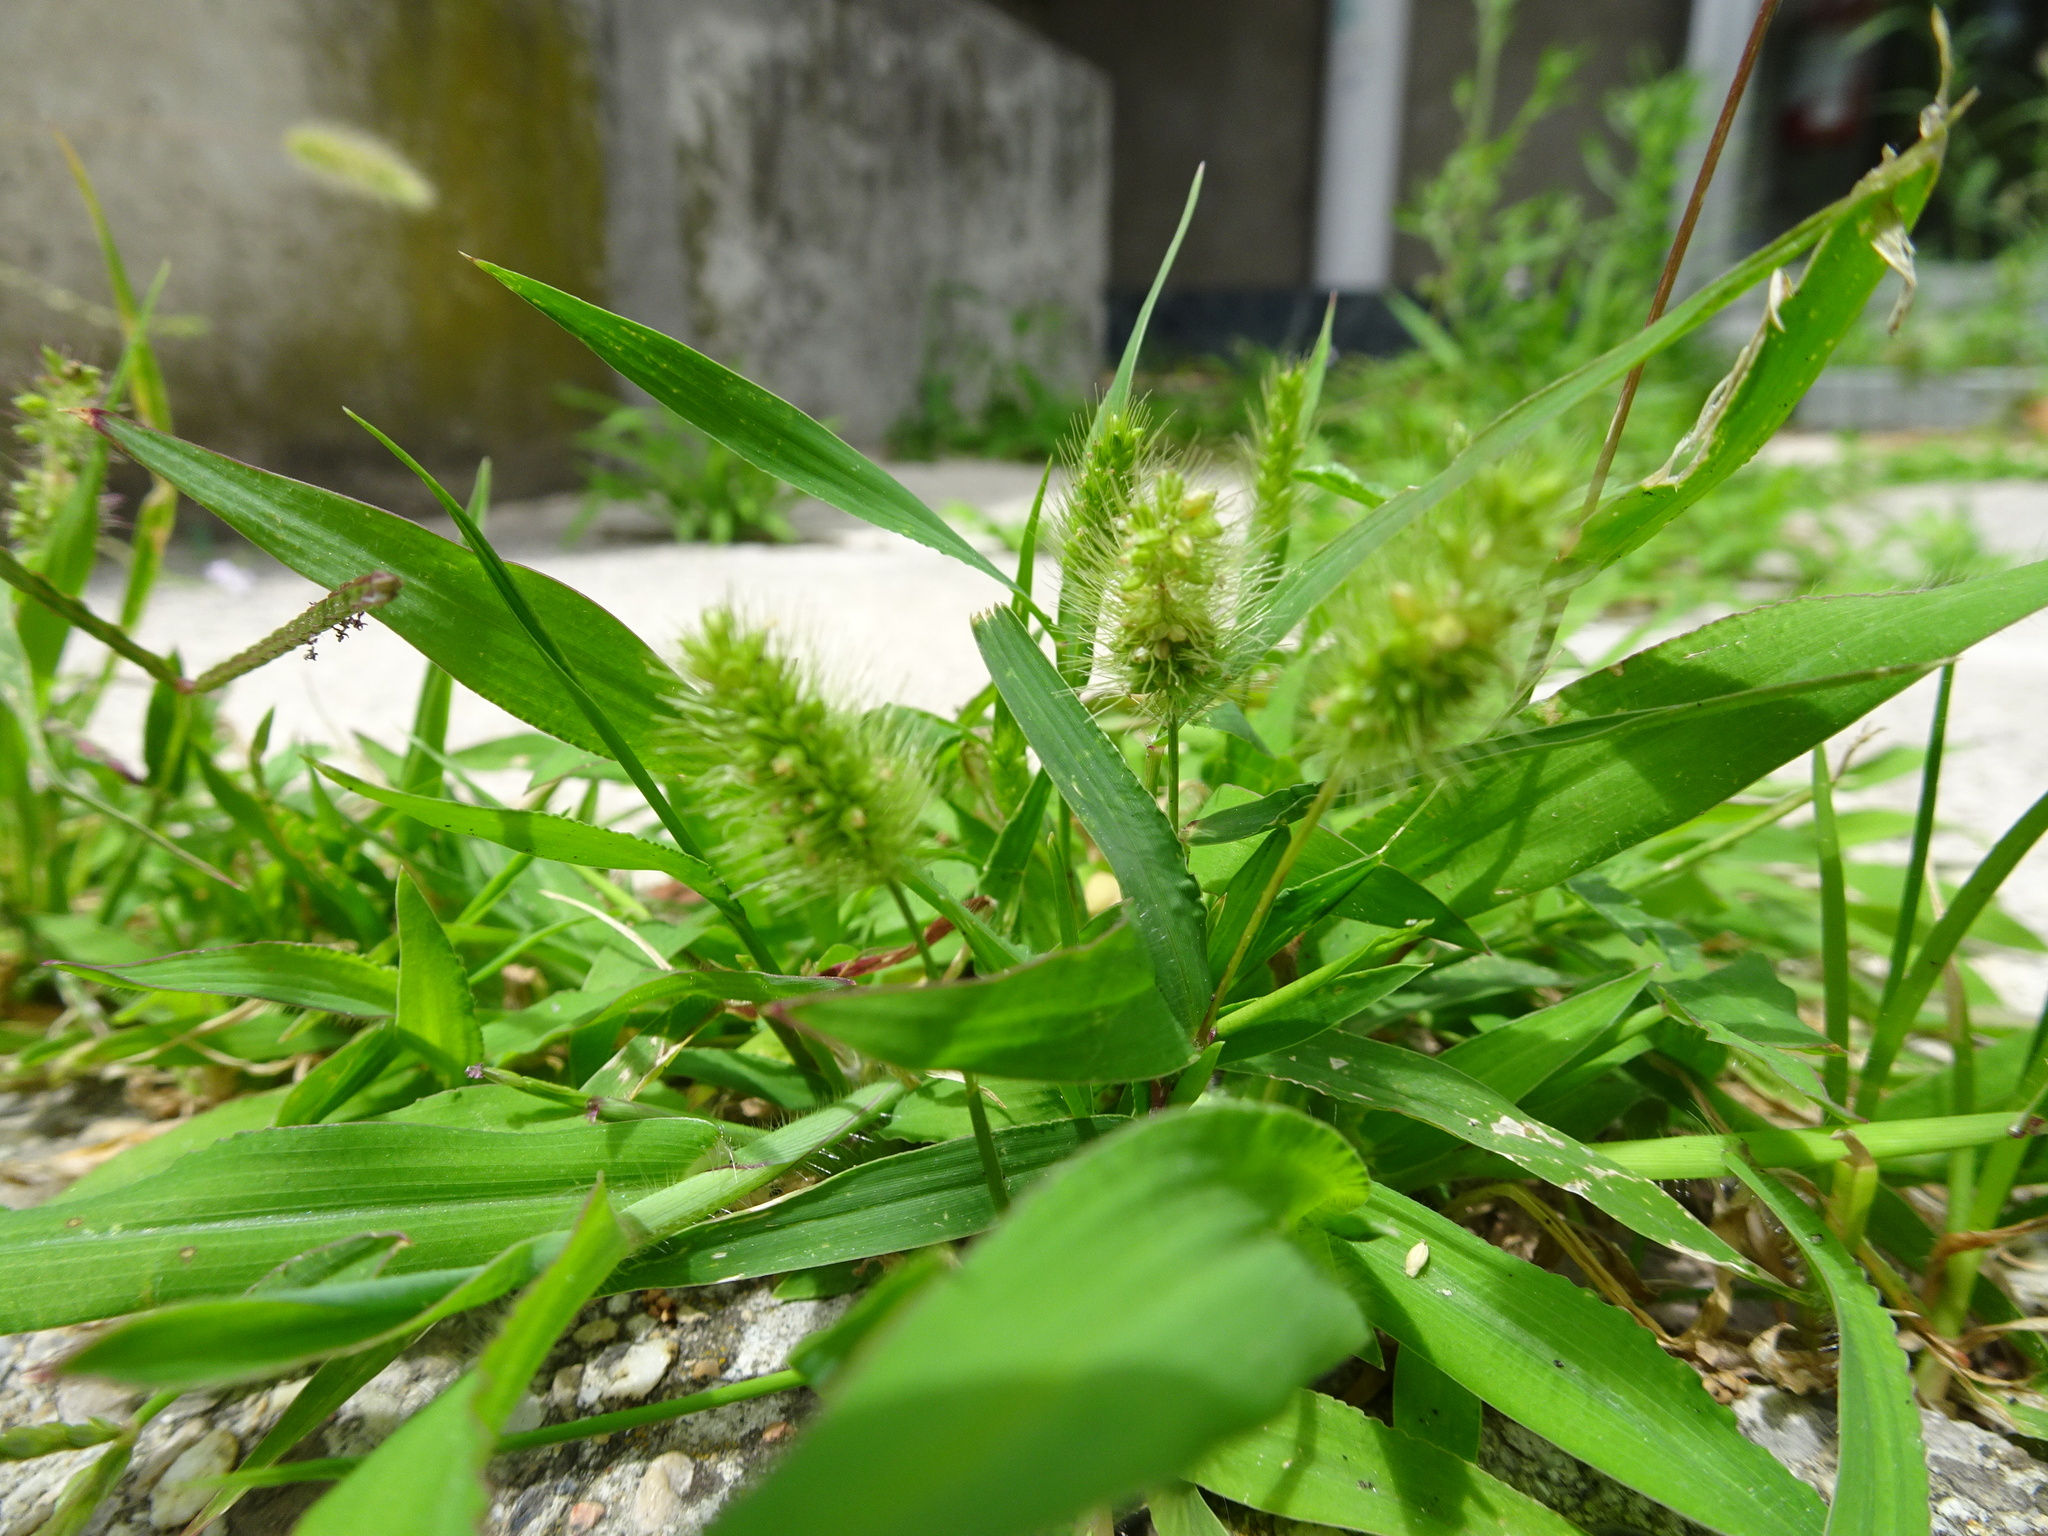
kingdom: Plantae
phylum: Tracheophyta
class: Liliopsida
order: Poales
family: Poaceae
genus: Setaria
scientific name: Setaria viridis
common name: Green bristlegrass
